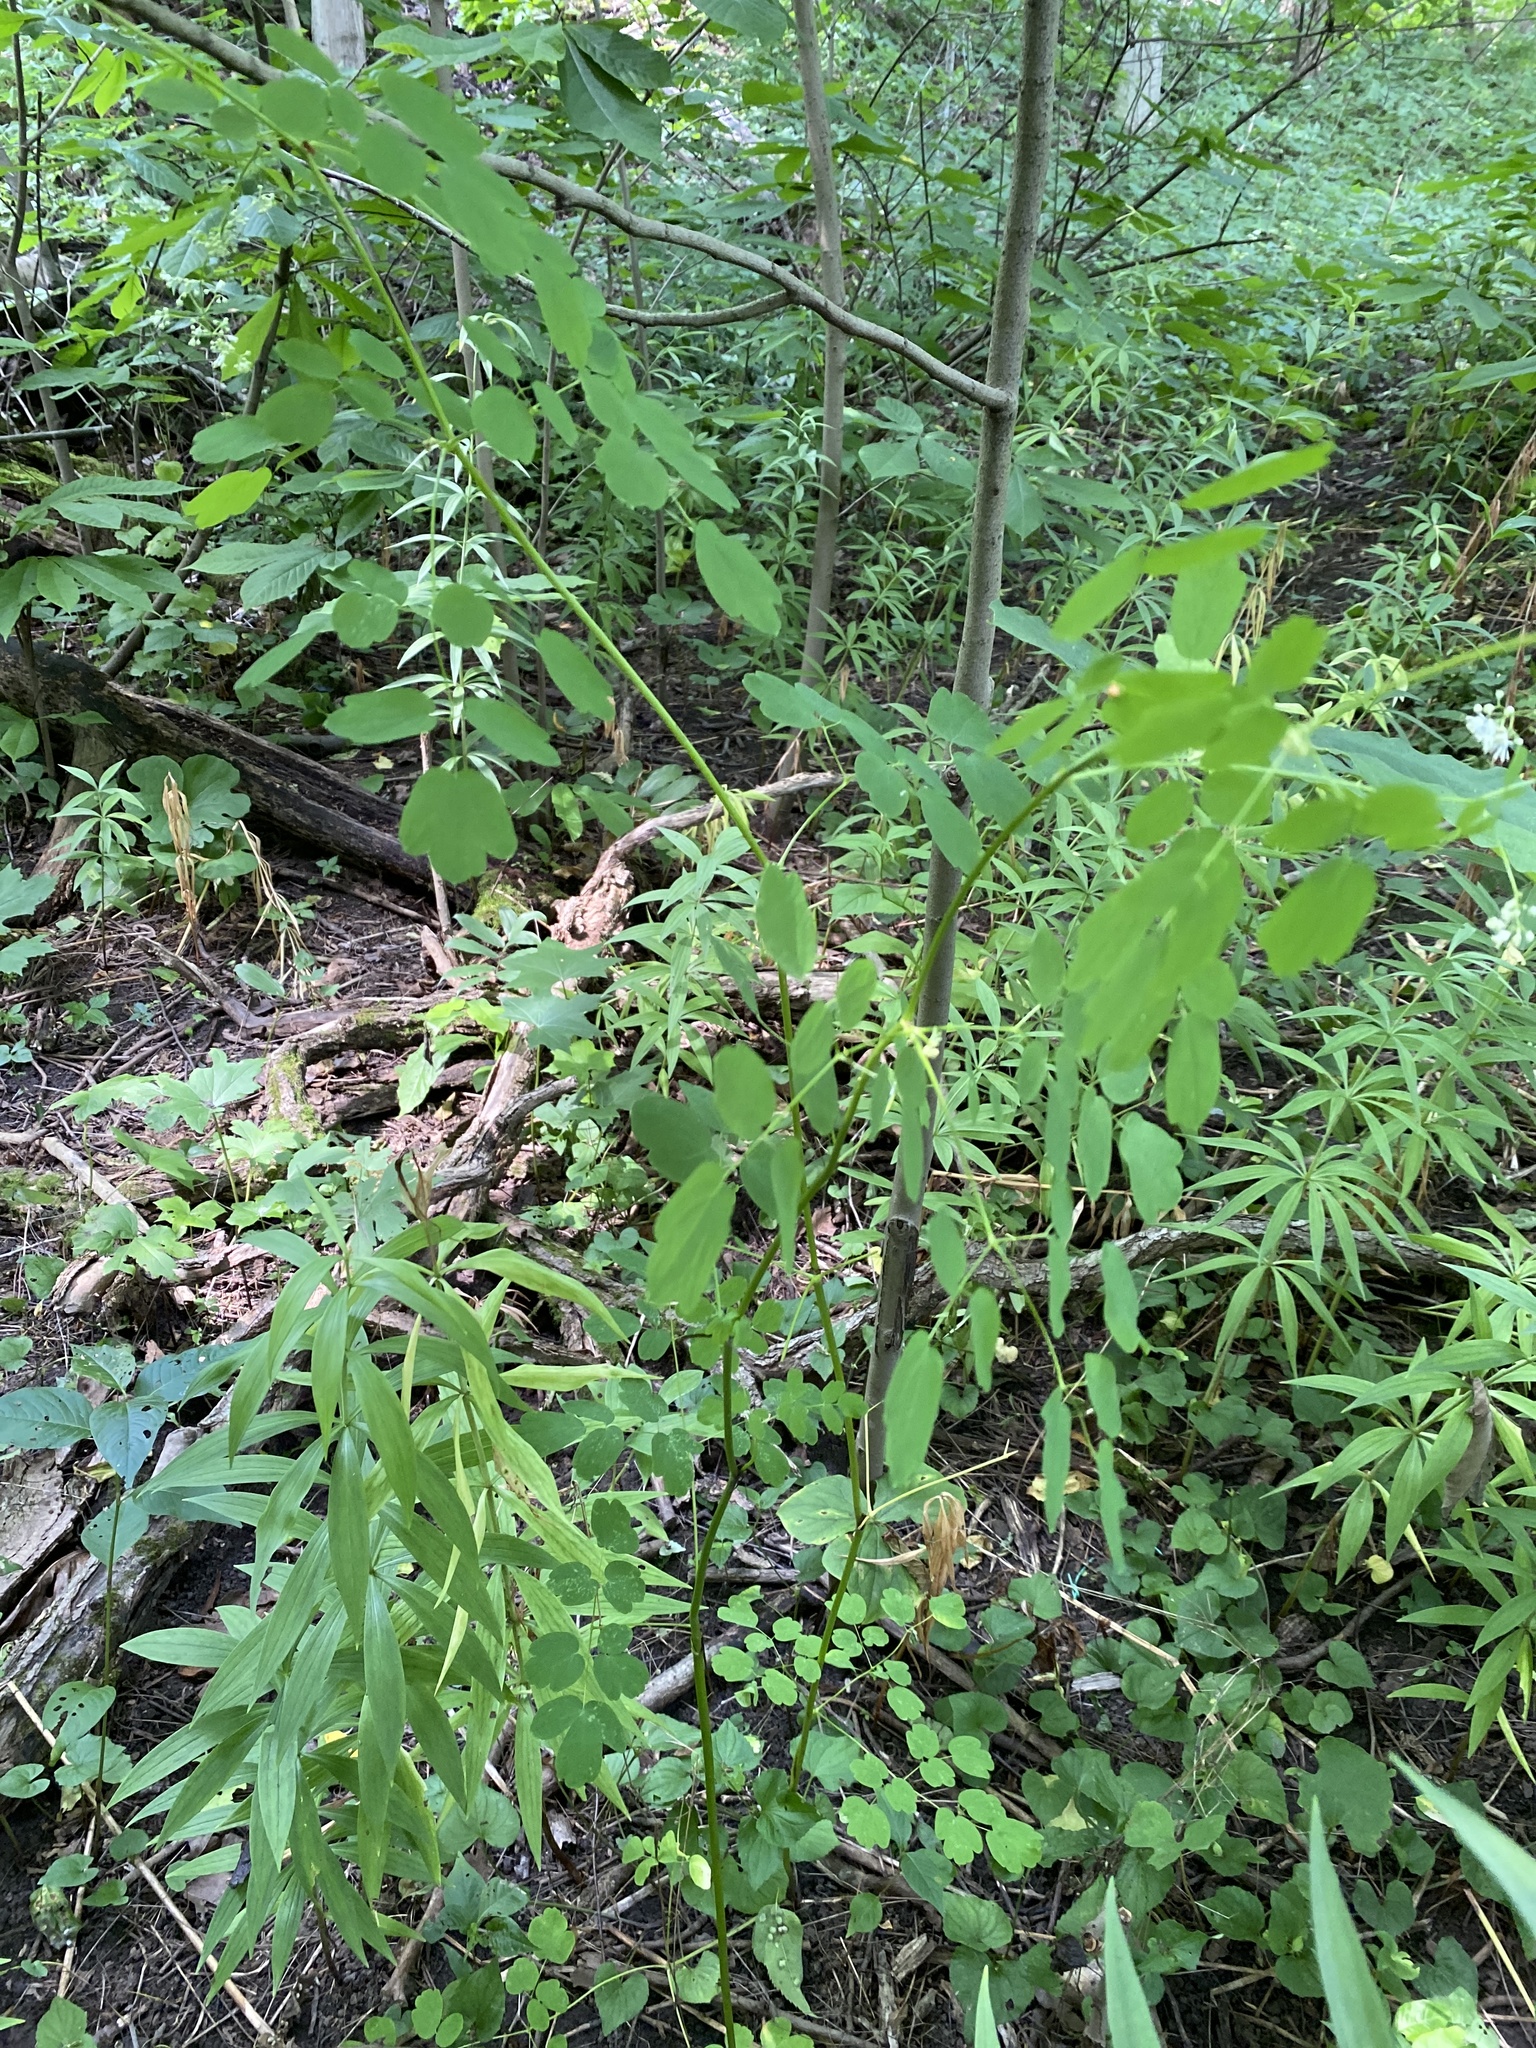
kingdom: Plantae
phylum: Tracheophyta
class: Magnoliopsida
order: Ranunculales
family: Ranunculaceae
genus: Thalictrum
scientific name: Thalictrum pubescens
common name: King-of-the-meadow
